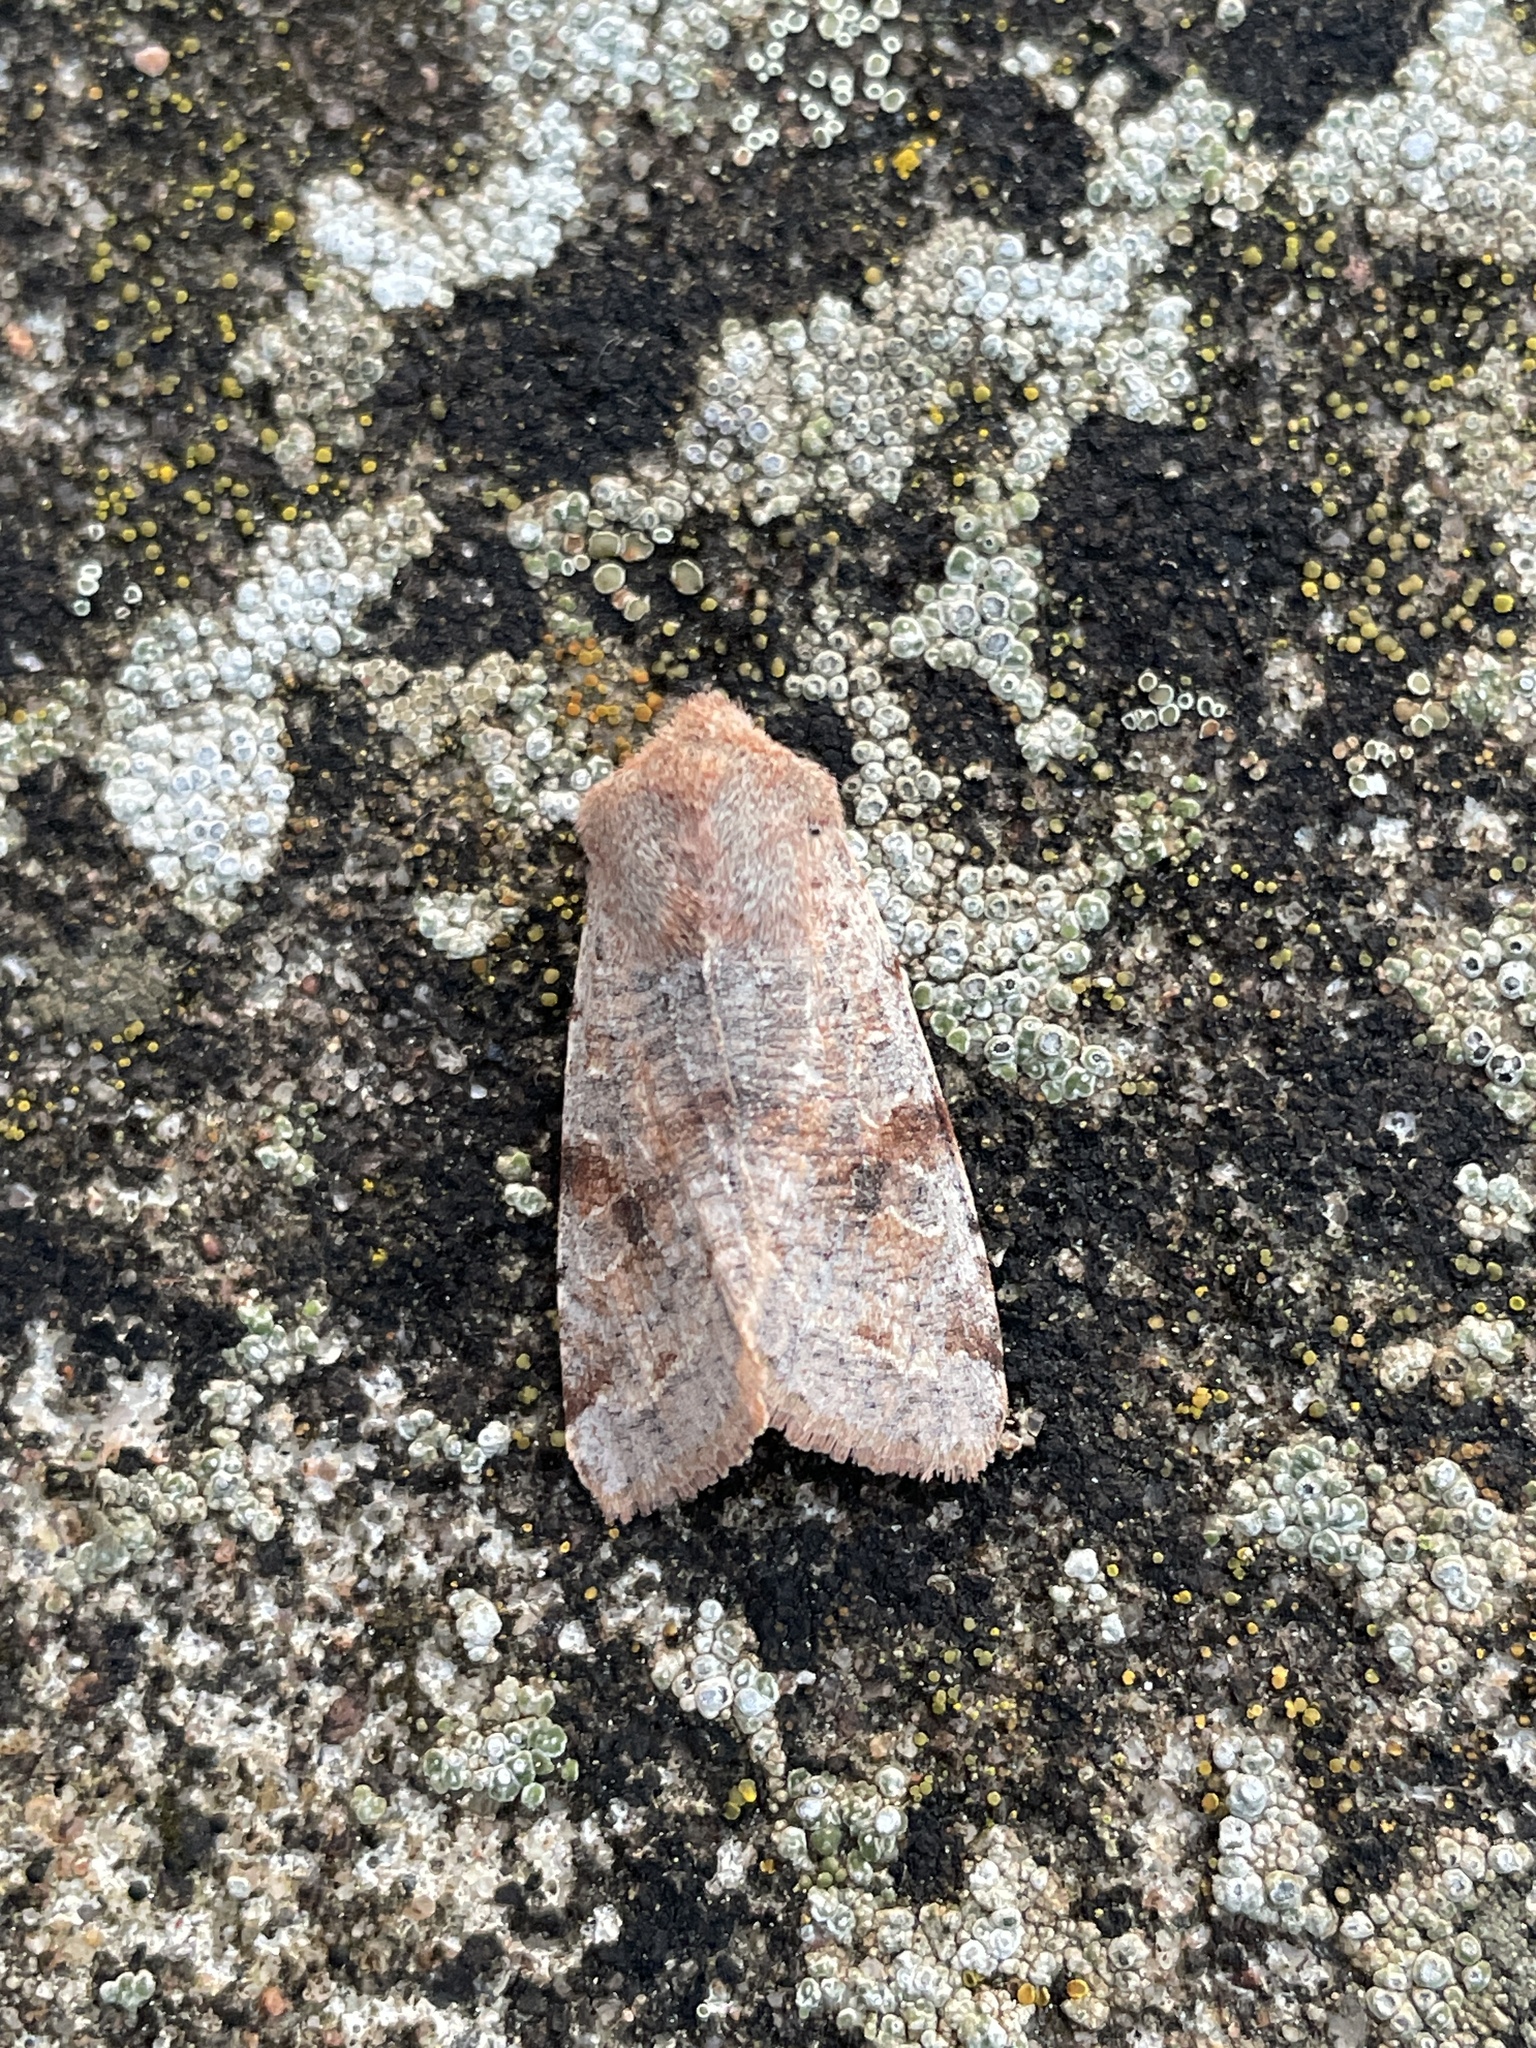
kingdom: Animalia
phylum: Arthropoda
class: Insecta
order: Lepidoptera
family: Noctuidae
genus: Orthosia
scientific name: Orthosia incerta
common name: Clouded drab
